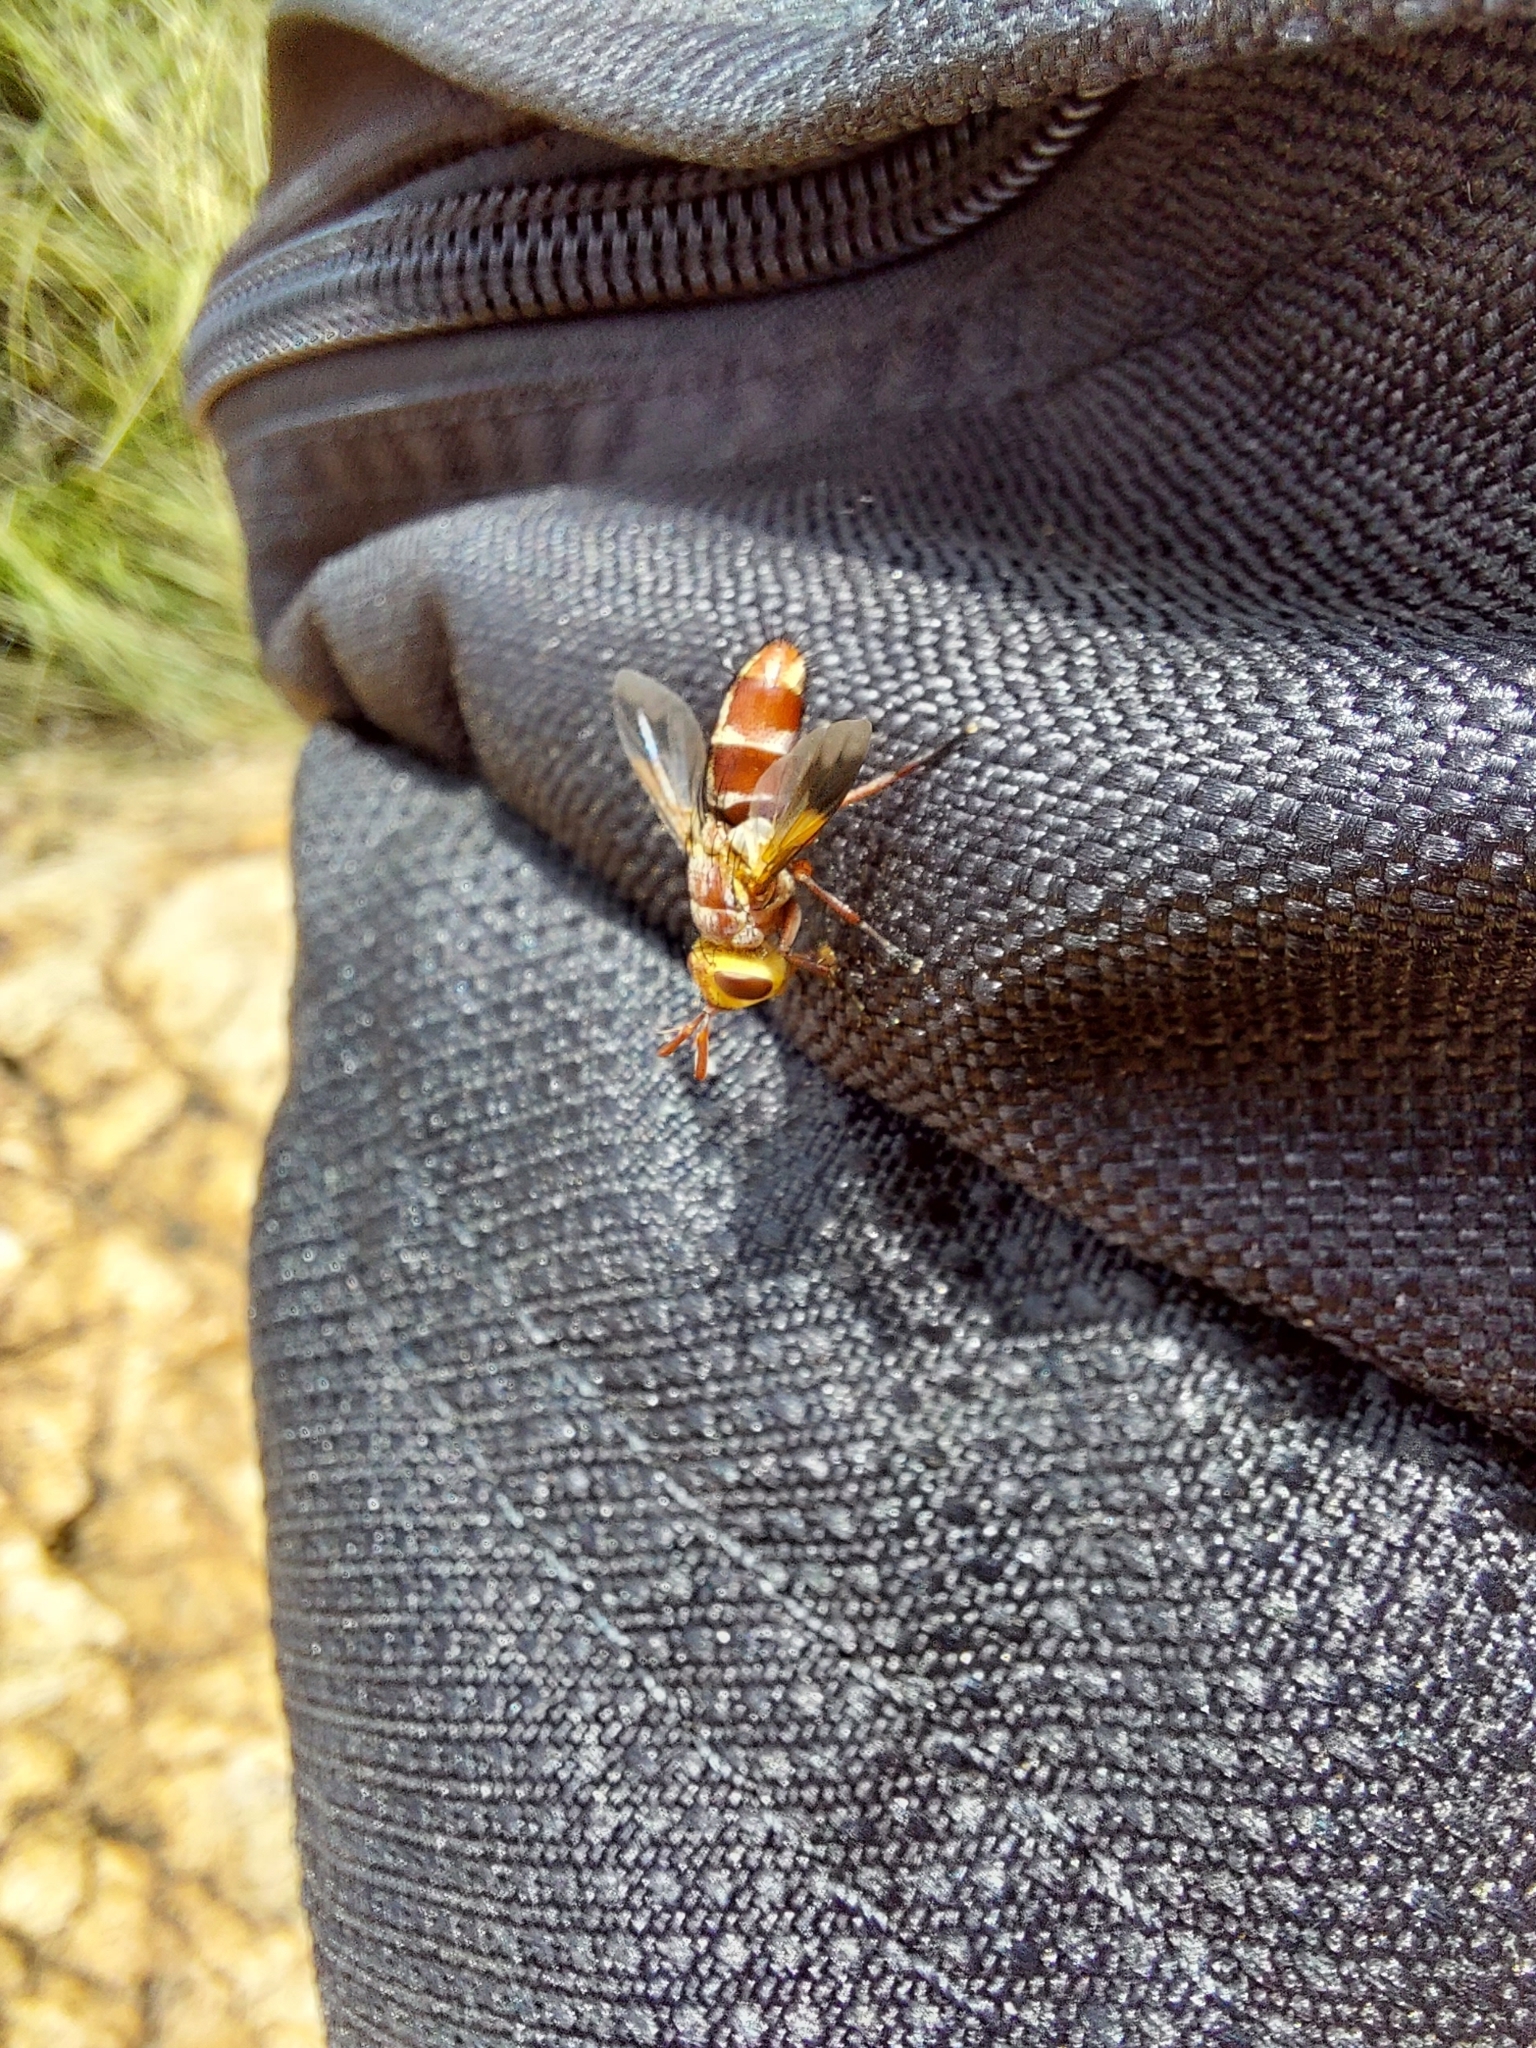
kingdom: Animalia
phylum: Arthropoda
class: Insecta
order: Diptera
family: Tachinidae
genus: Chromatophania
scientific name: Chromatophania picta
